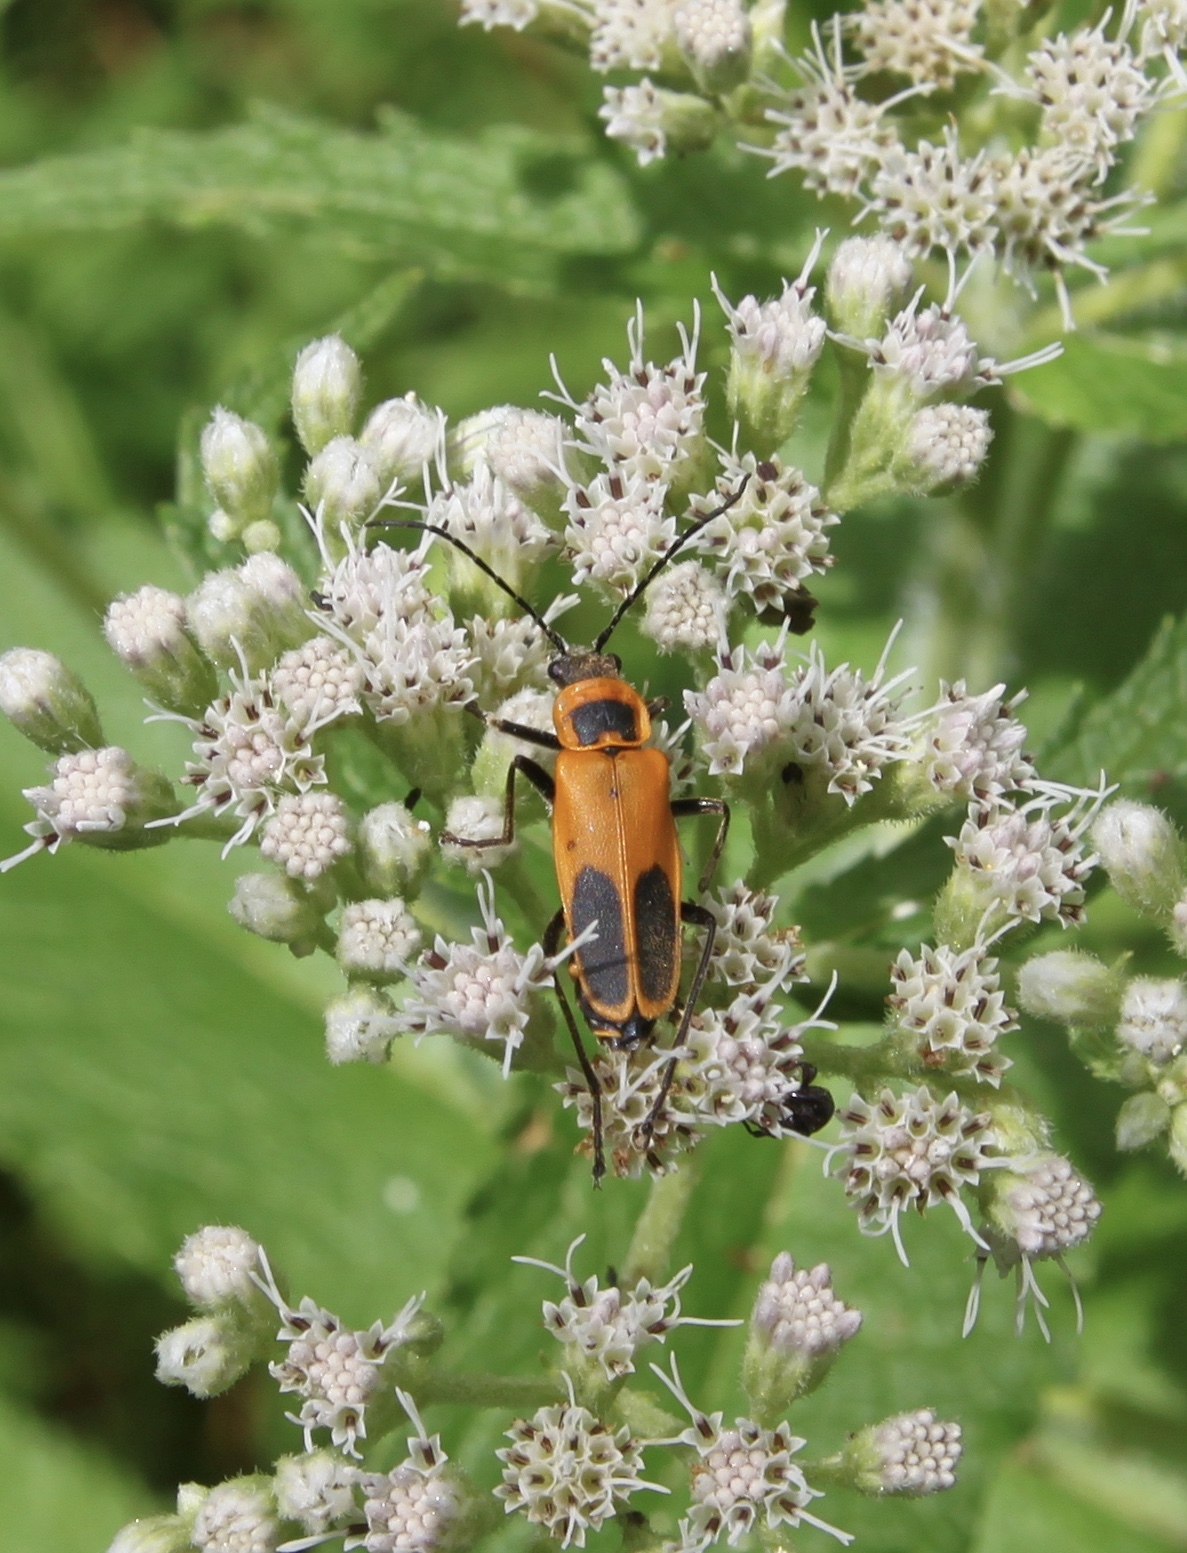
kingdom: Animalia
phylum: Arthropoda
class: Insecta
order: Coleoptera
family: Cantharidae
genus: Chauliognathus
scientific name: Chauliognathus pensylvanicus
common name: Goldenrod soldier beetle
